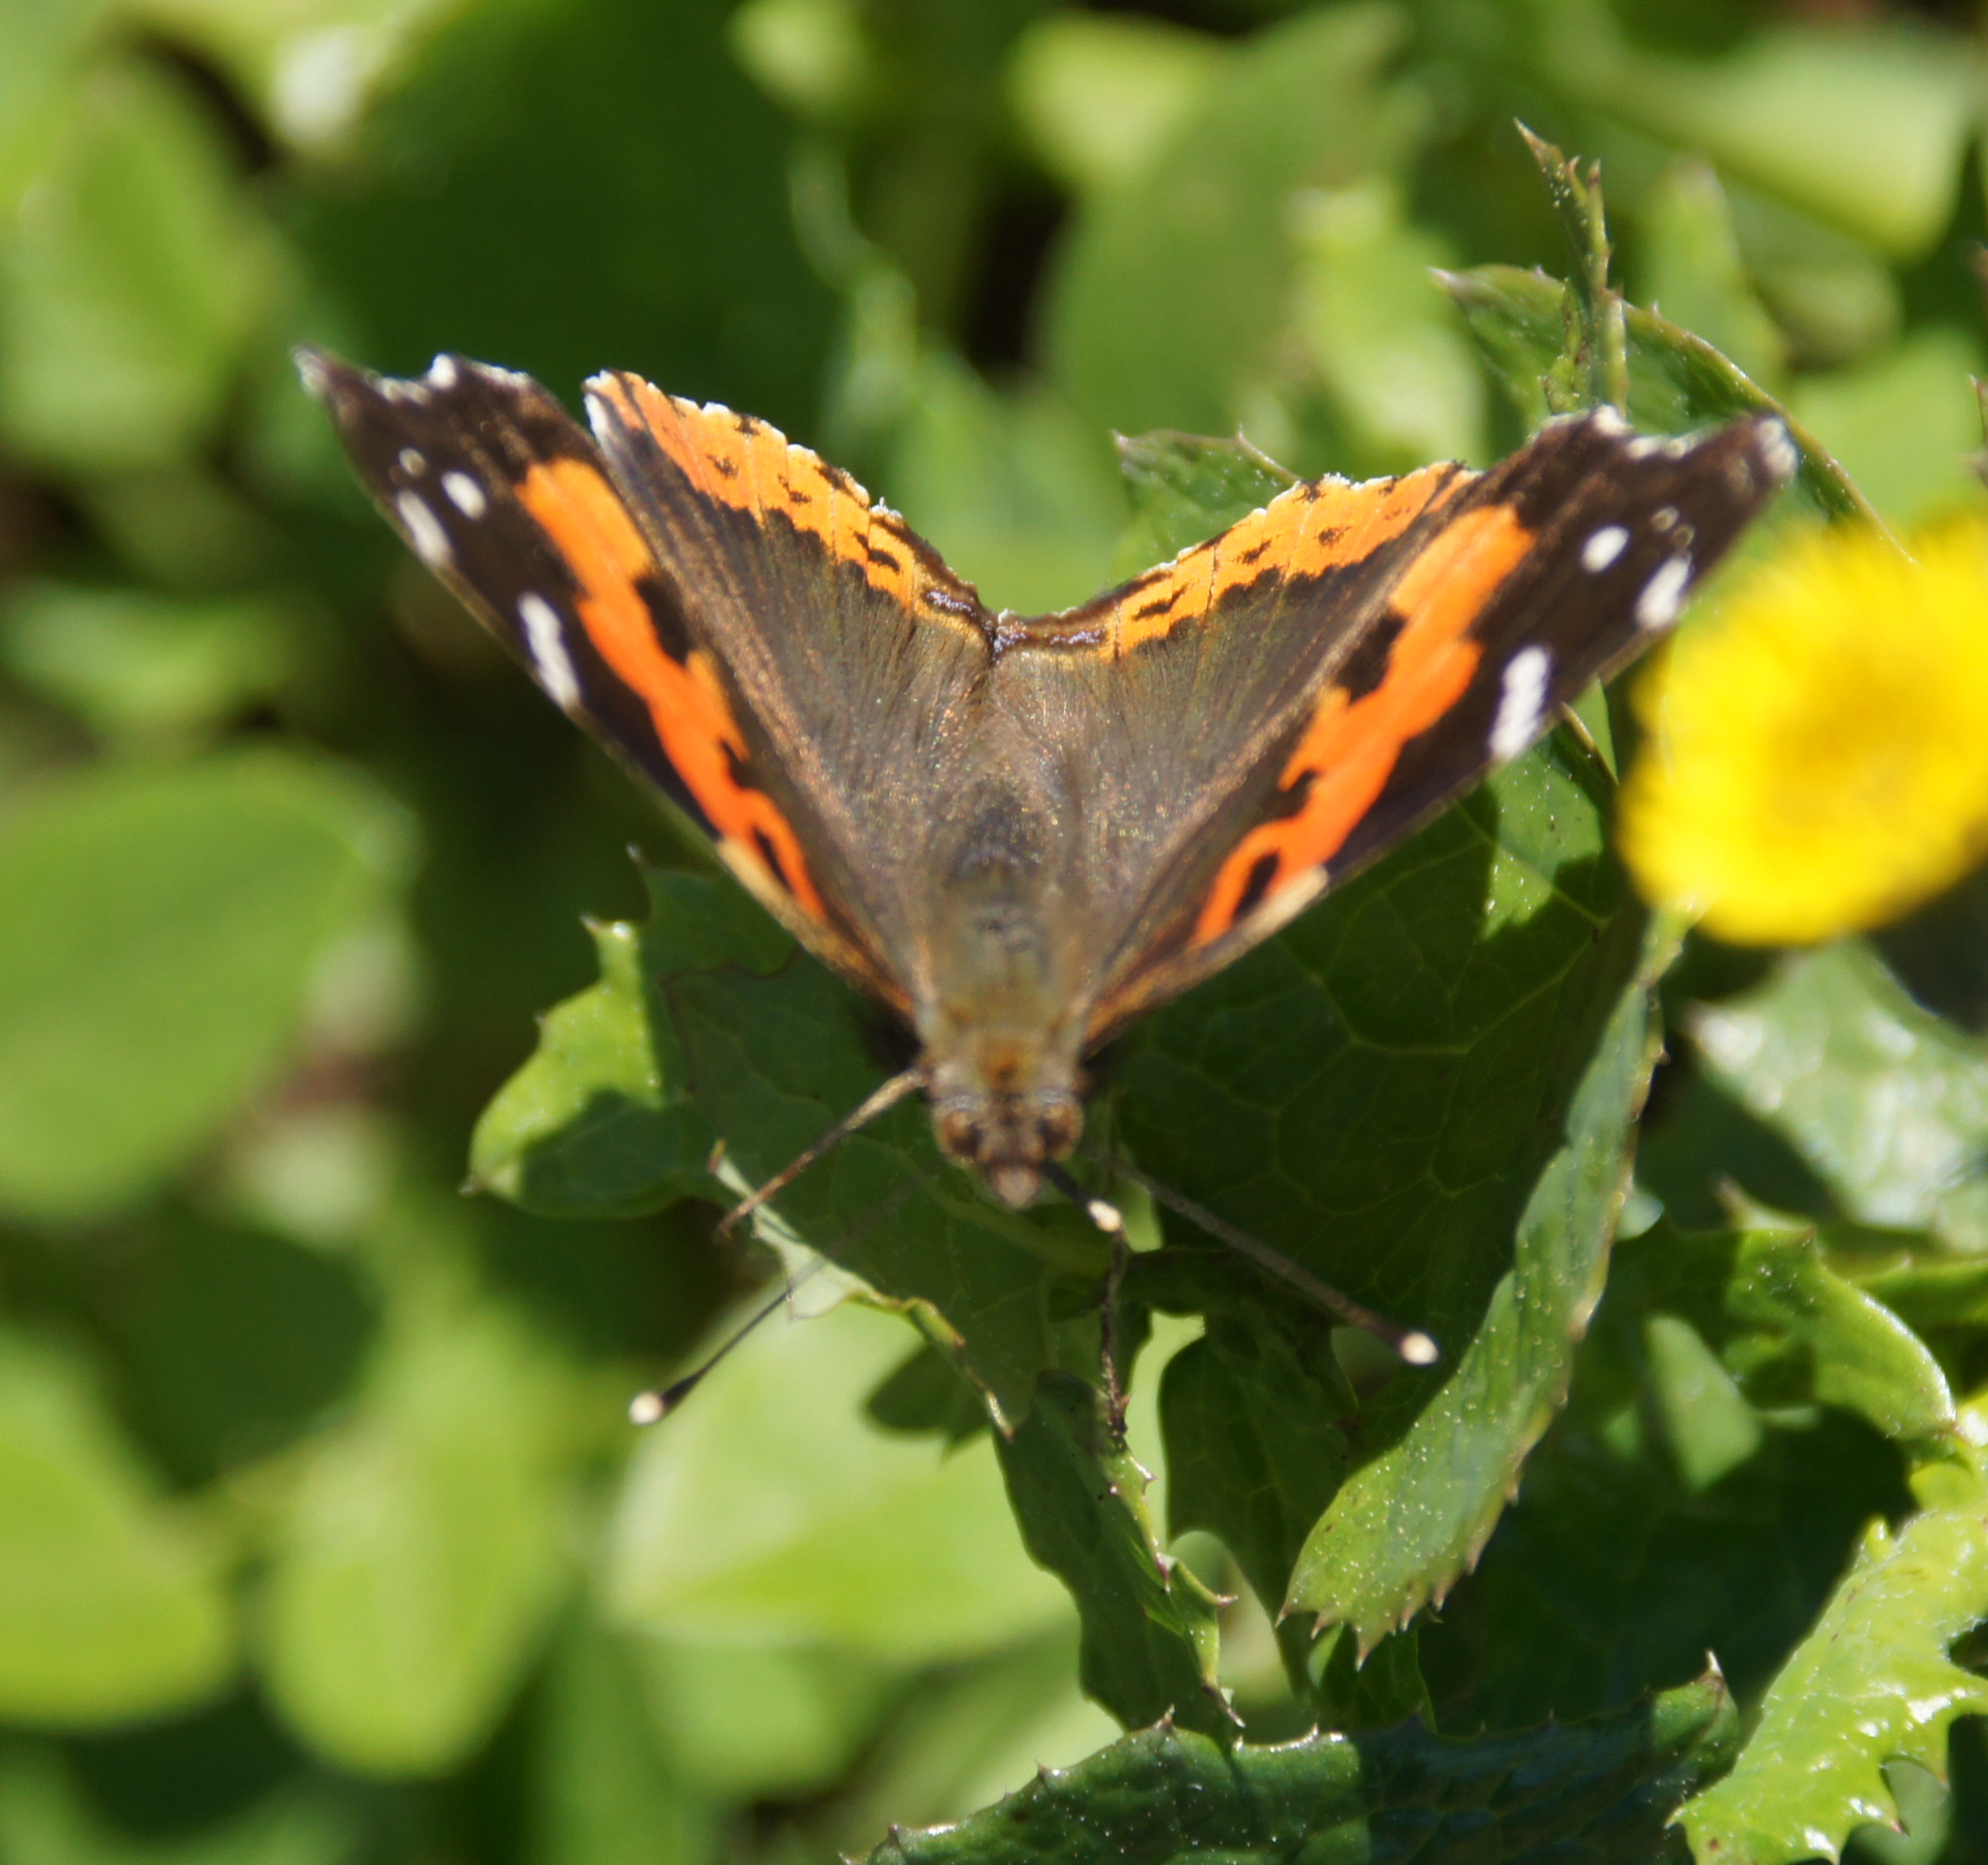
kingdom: Animalia
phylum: Arthropoda
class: Insecta
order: Lepidoptera
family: Nymphalidae
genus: Vanessa
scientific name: Vanessa vulcania
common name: Canary red admiral
